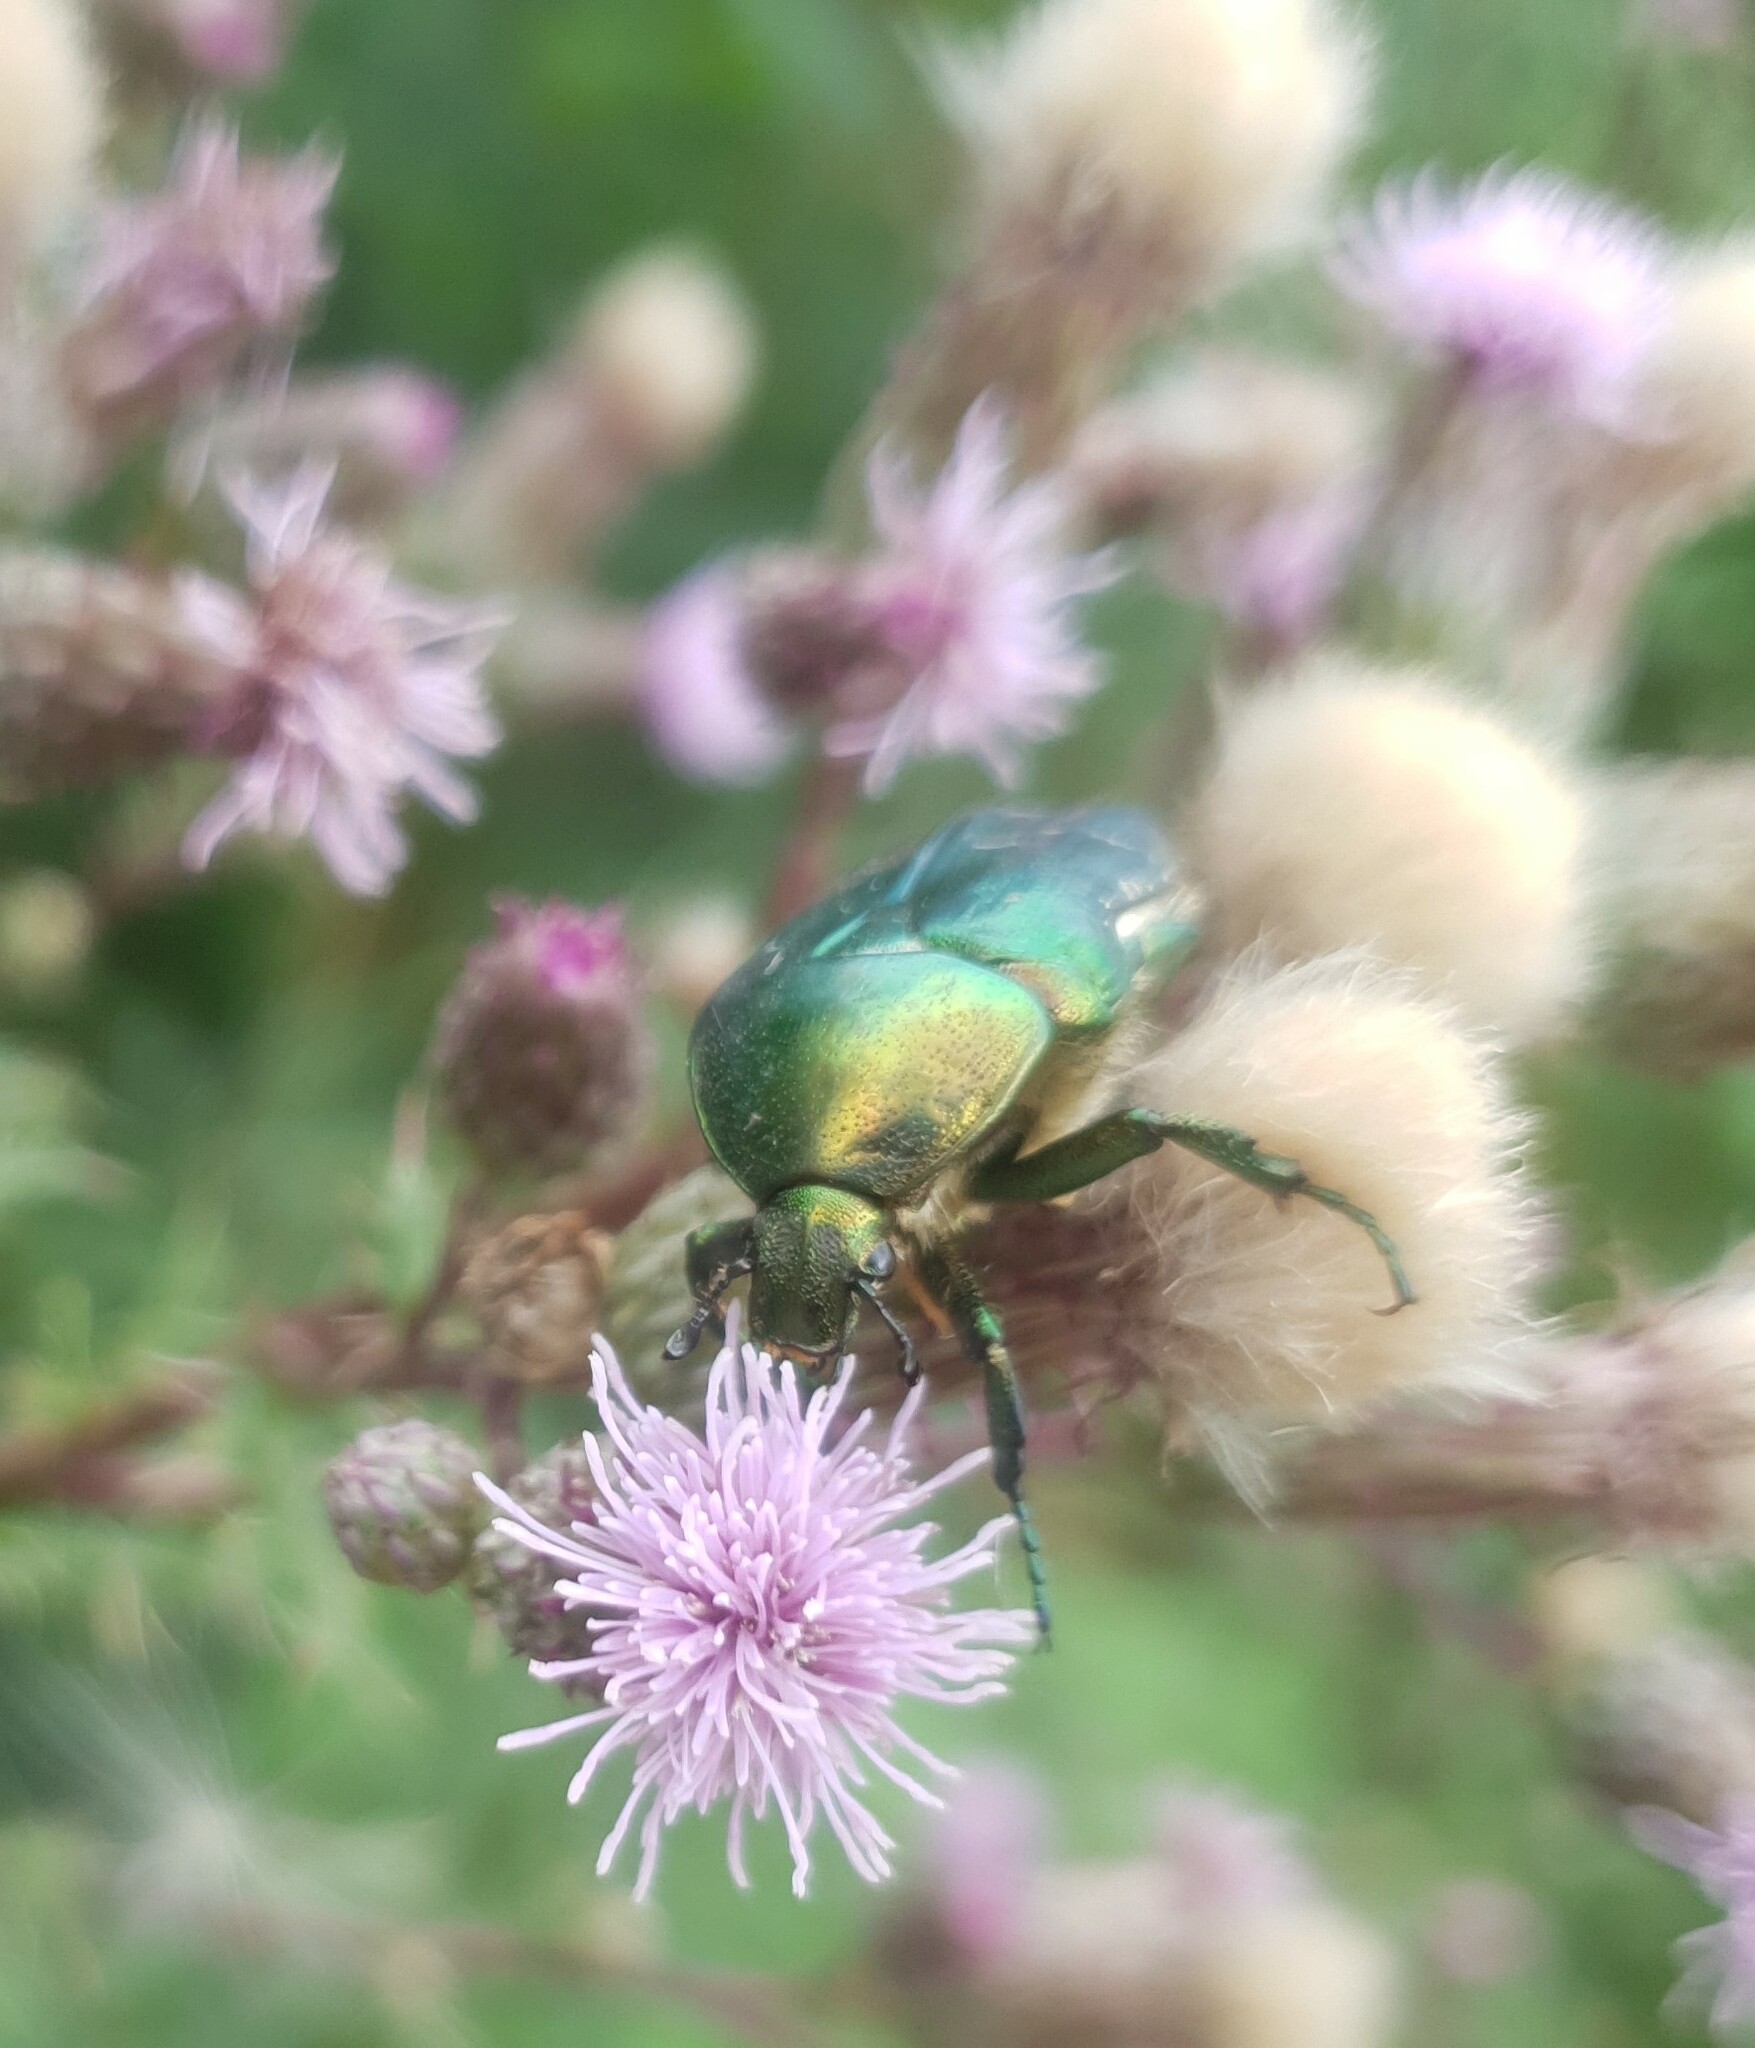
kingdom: Animalia
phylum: Arthropoda
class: Insecta
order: Coleoptera
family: Scarabaeidae
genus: Cetonia
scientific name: Cetonia aurata
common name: Rose chafer
